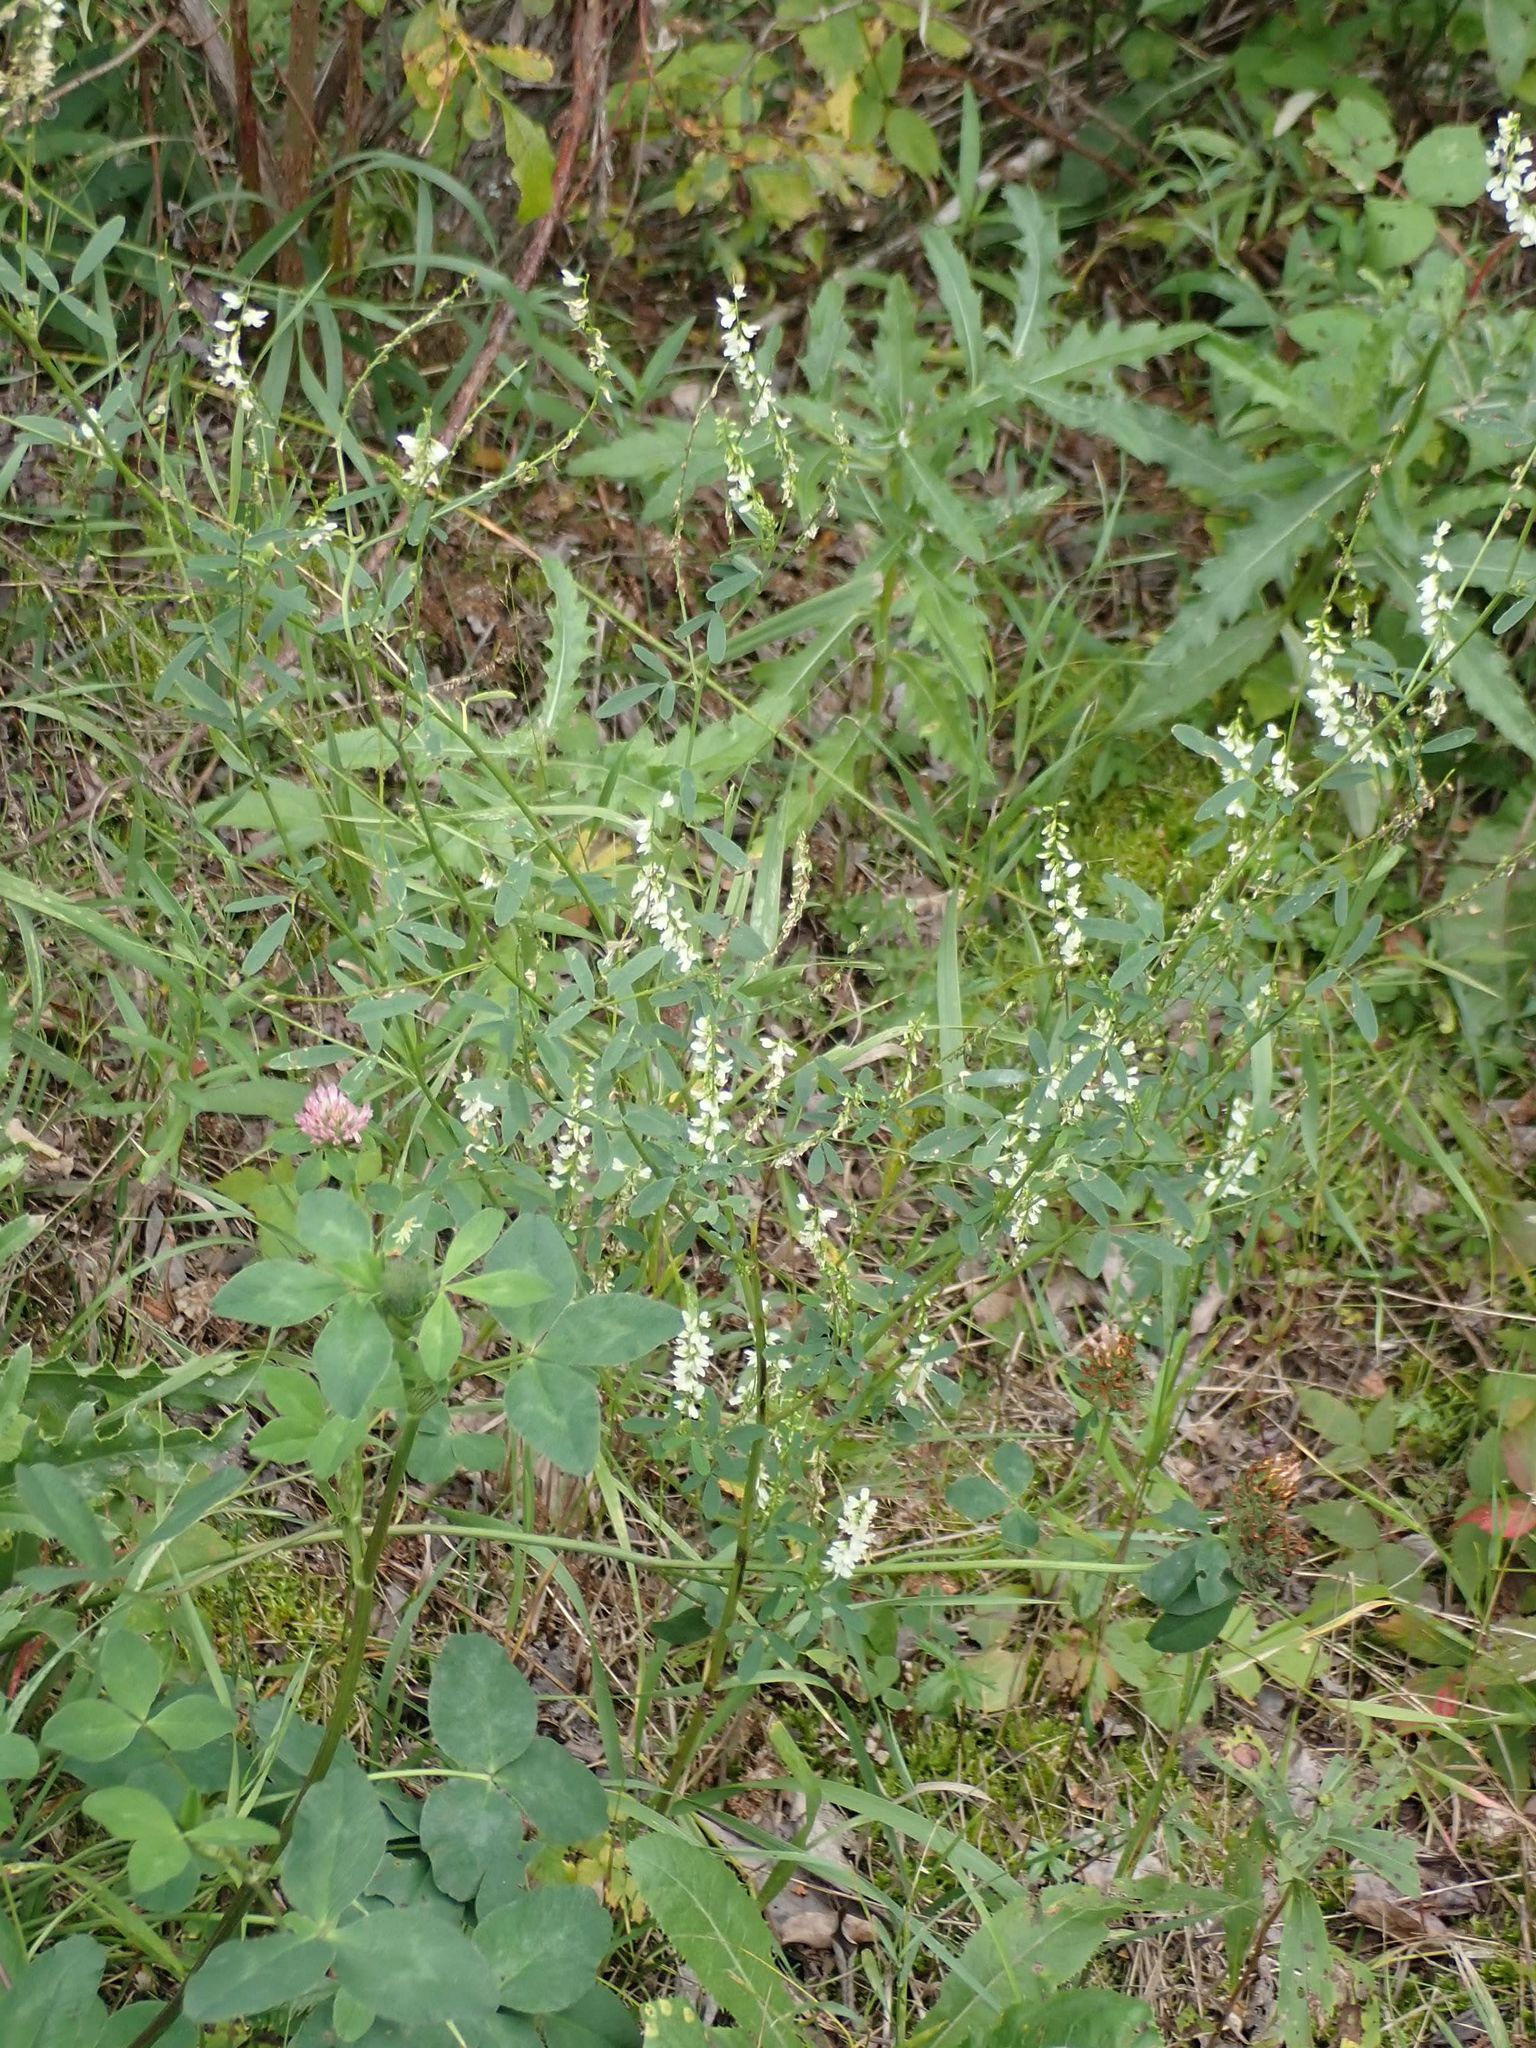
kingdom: Plantae
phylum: Tracheophyta
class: Magnoliopsida
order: Fabales
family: Fabaceae
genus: Melilotus
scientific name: Melilotus albus
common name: White melilot
